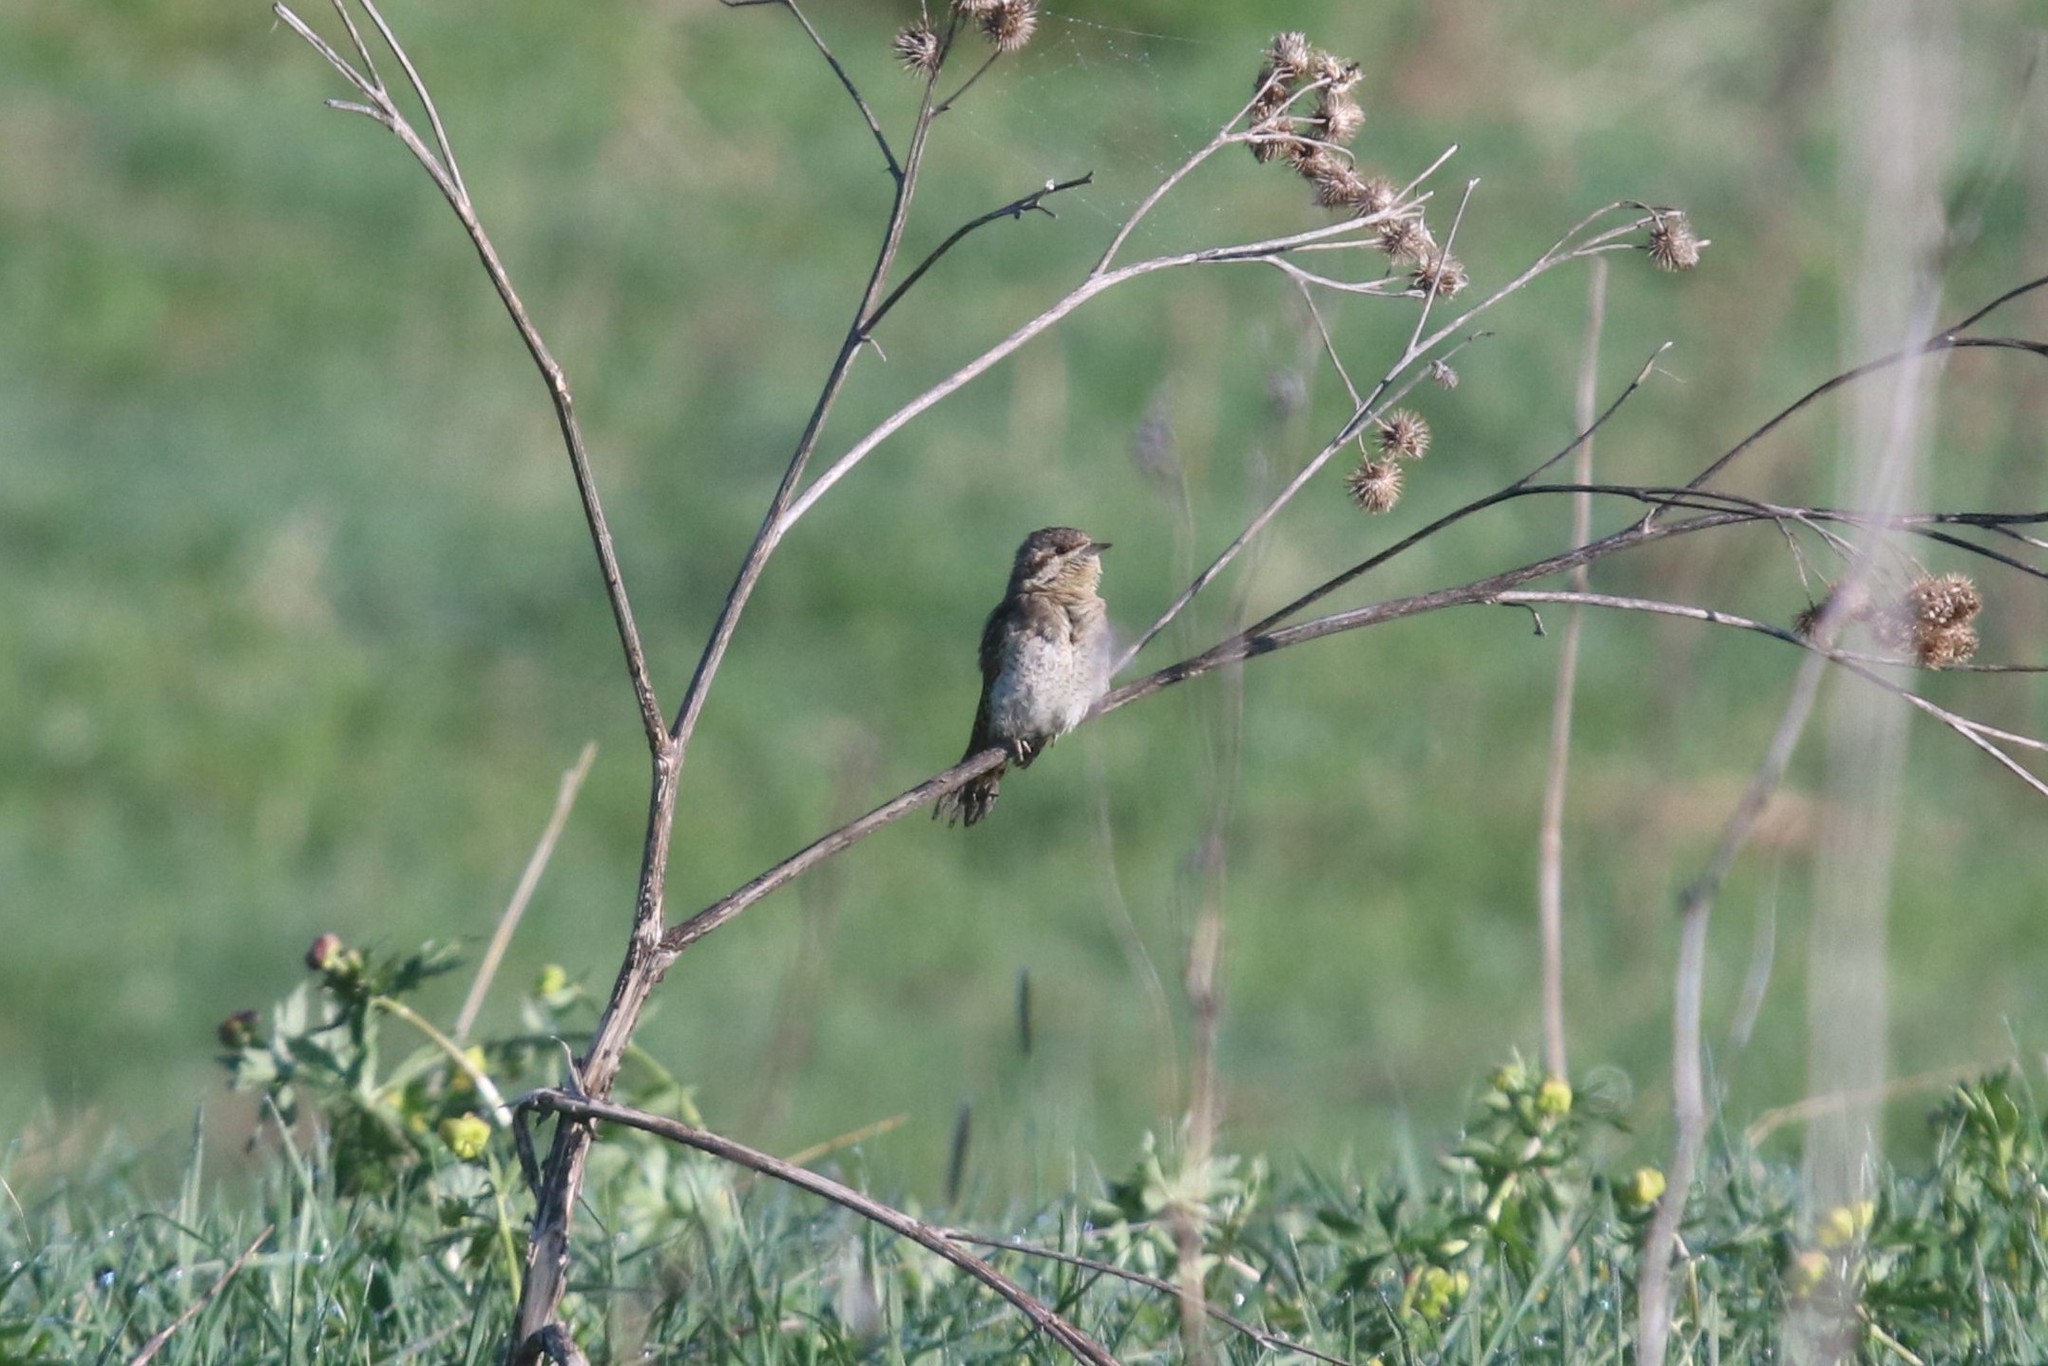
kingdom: Animalia
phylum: Chordata
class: Aves
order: Piciformes
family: Picidae
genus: Jynx
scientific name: Jynx torquilla
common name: Eurasian wryneck
